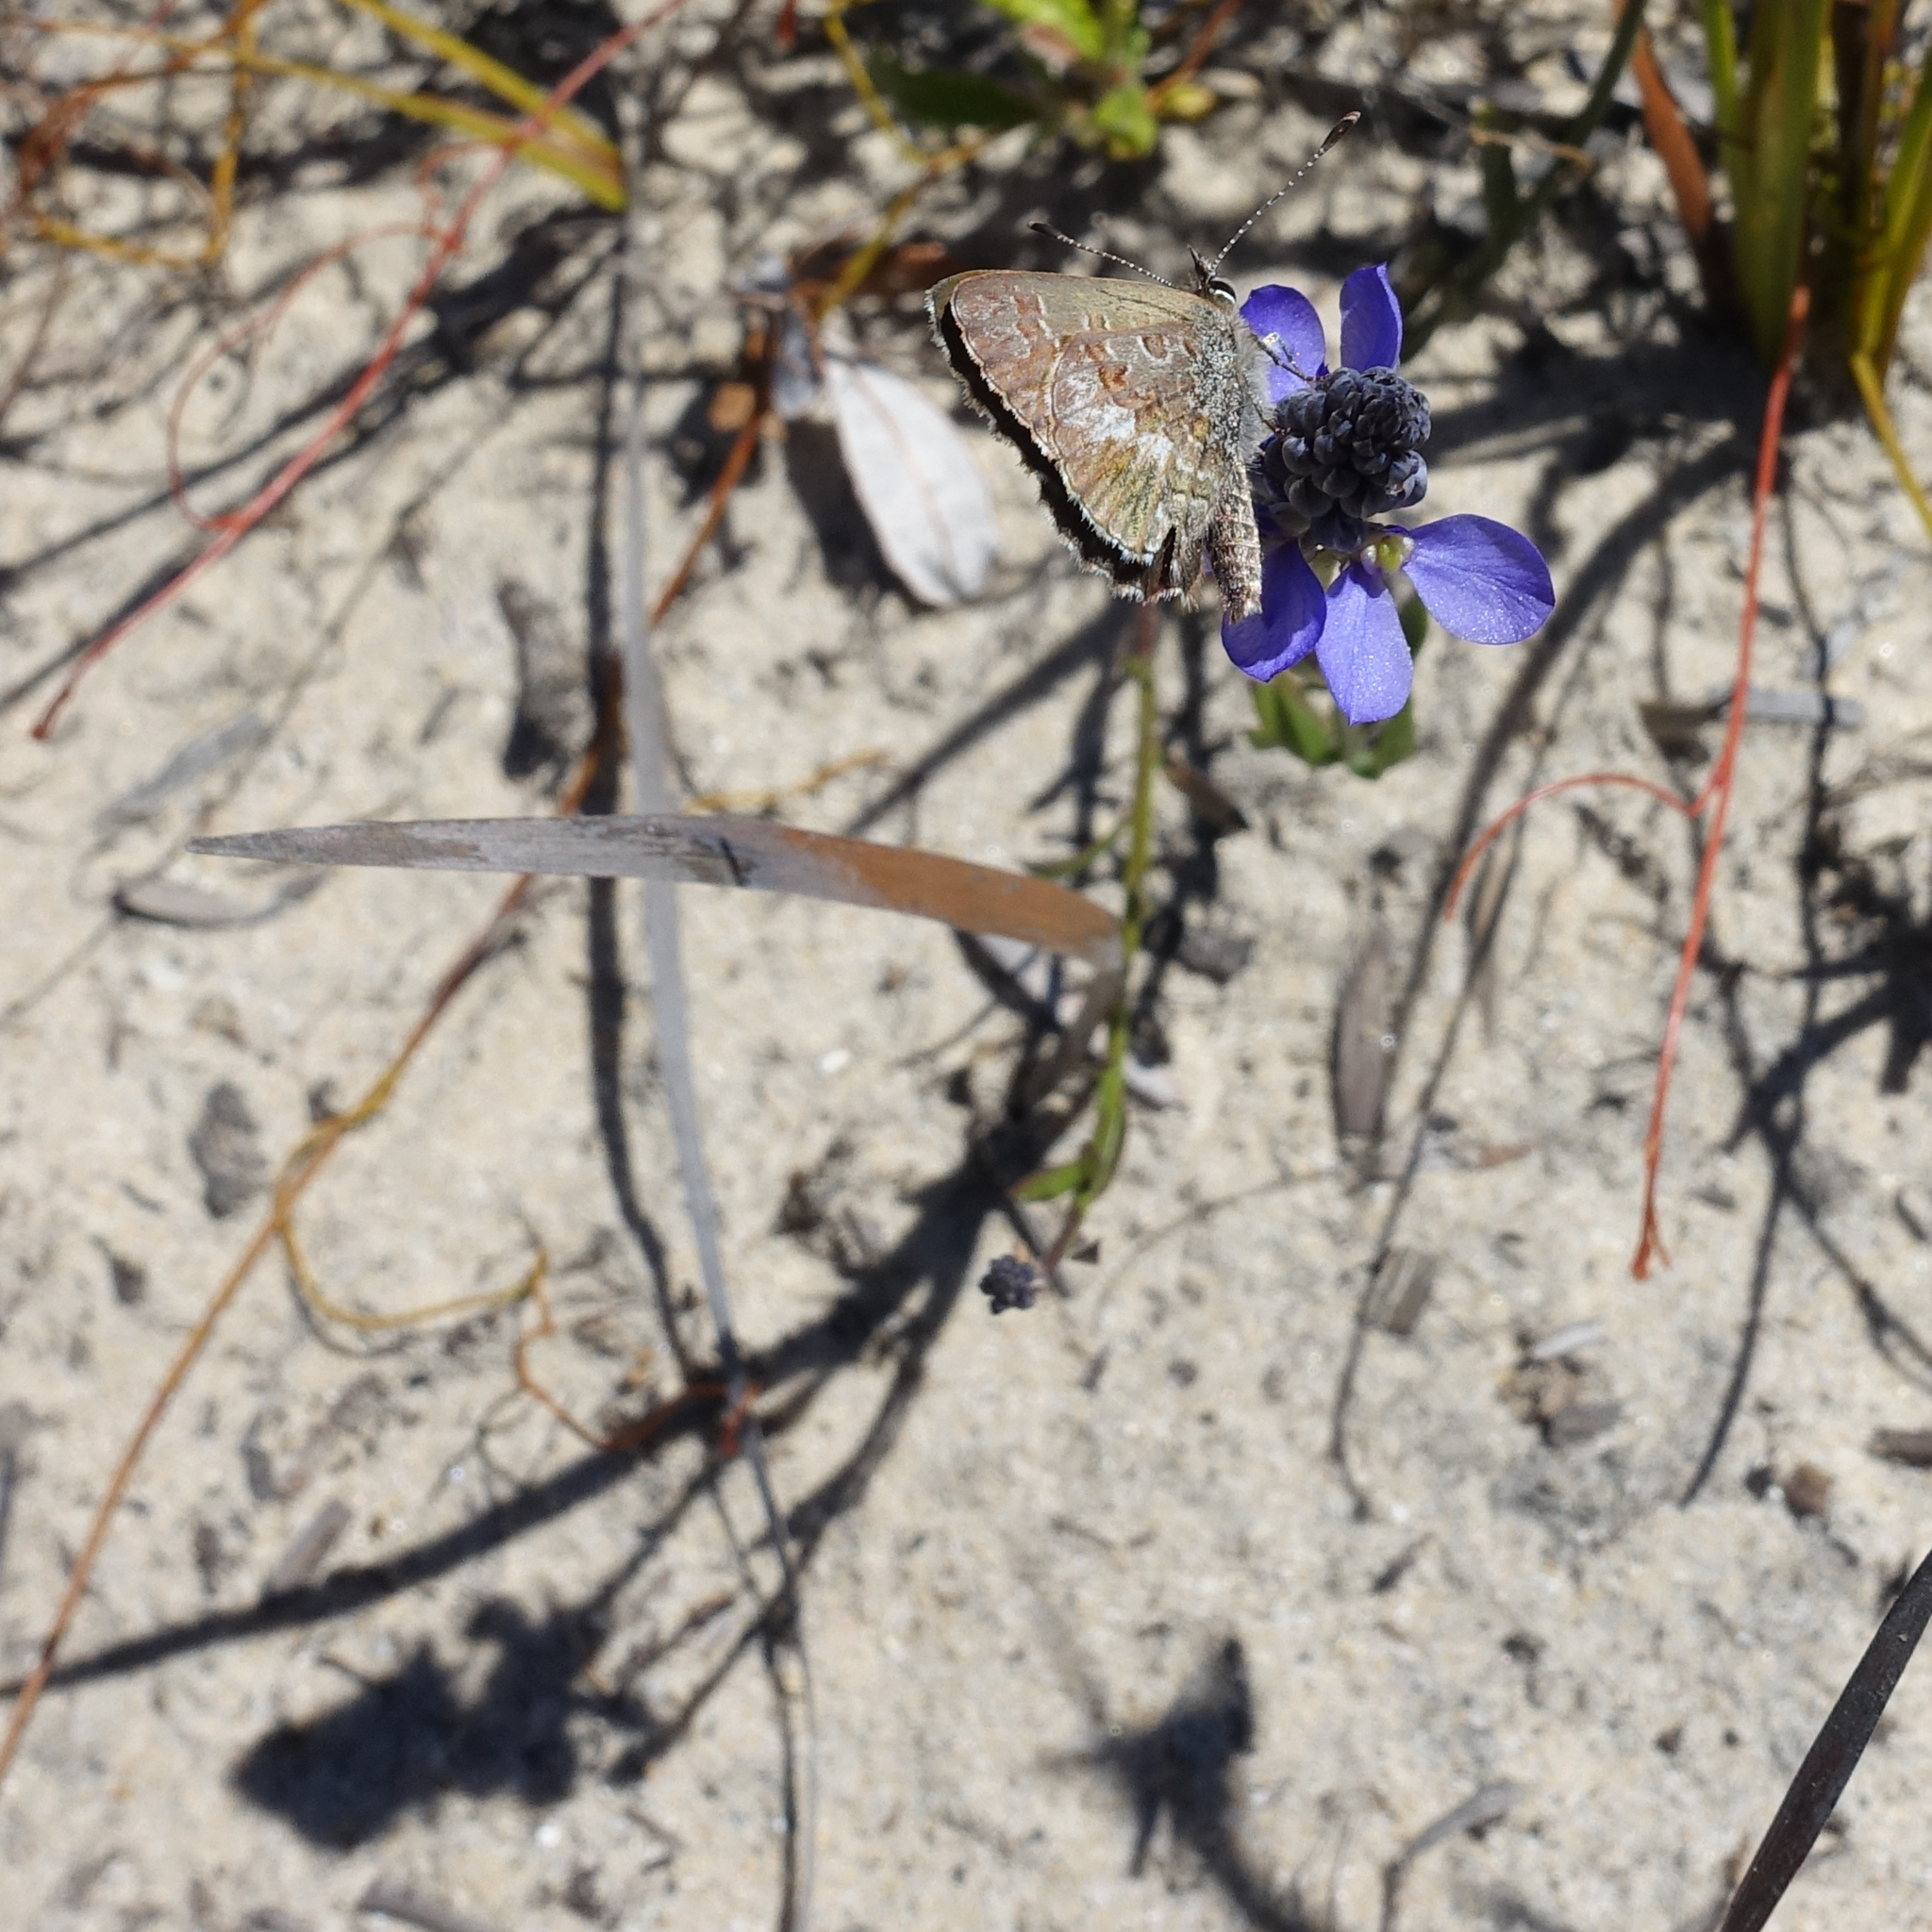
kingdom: Plantae
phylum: Tracheophyta
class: Magnoliopsida
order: Fabales
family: Polygalaceae
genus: Comesperma
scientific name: Comesperma calymega
